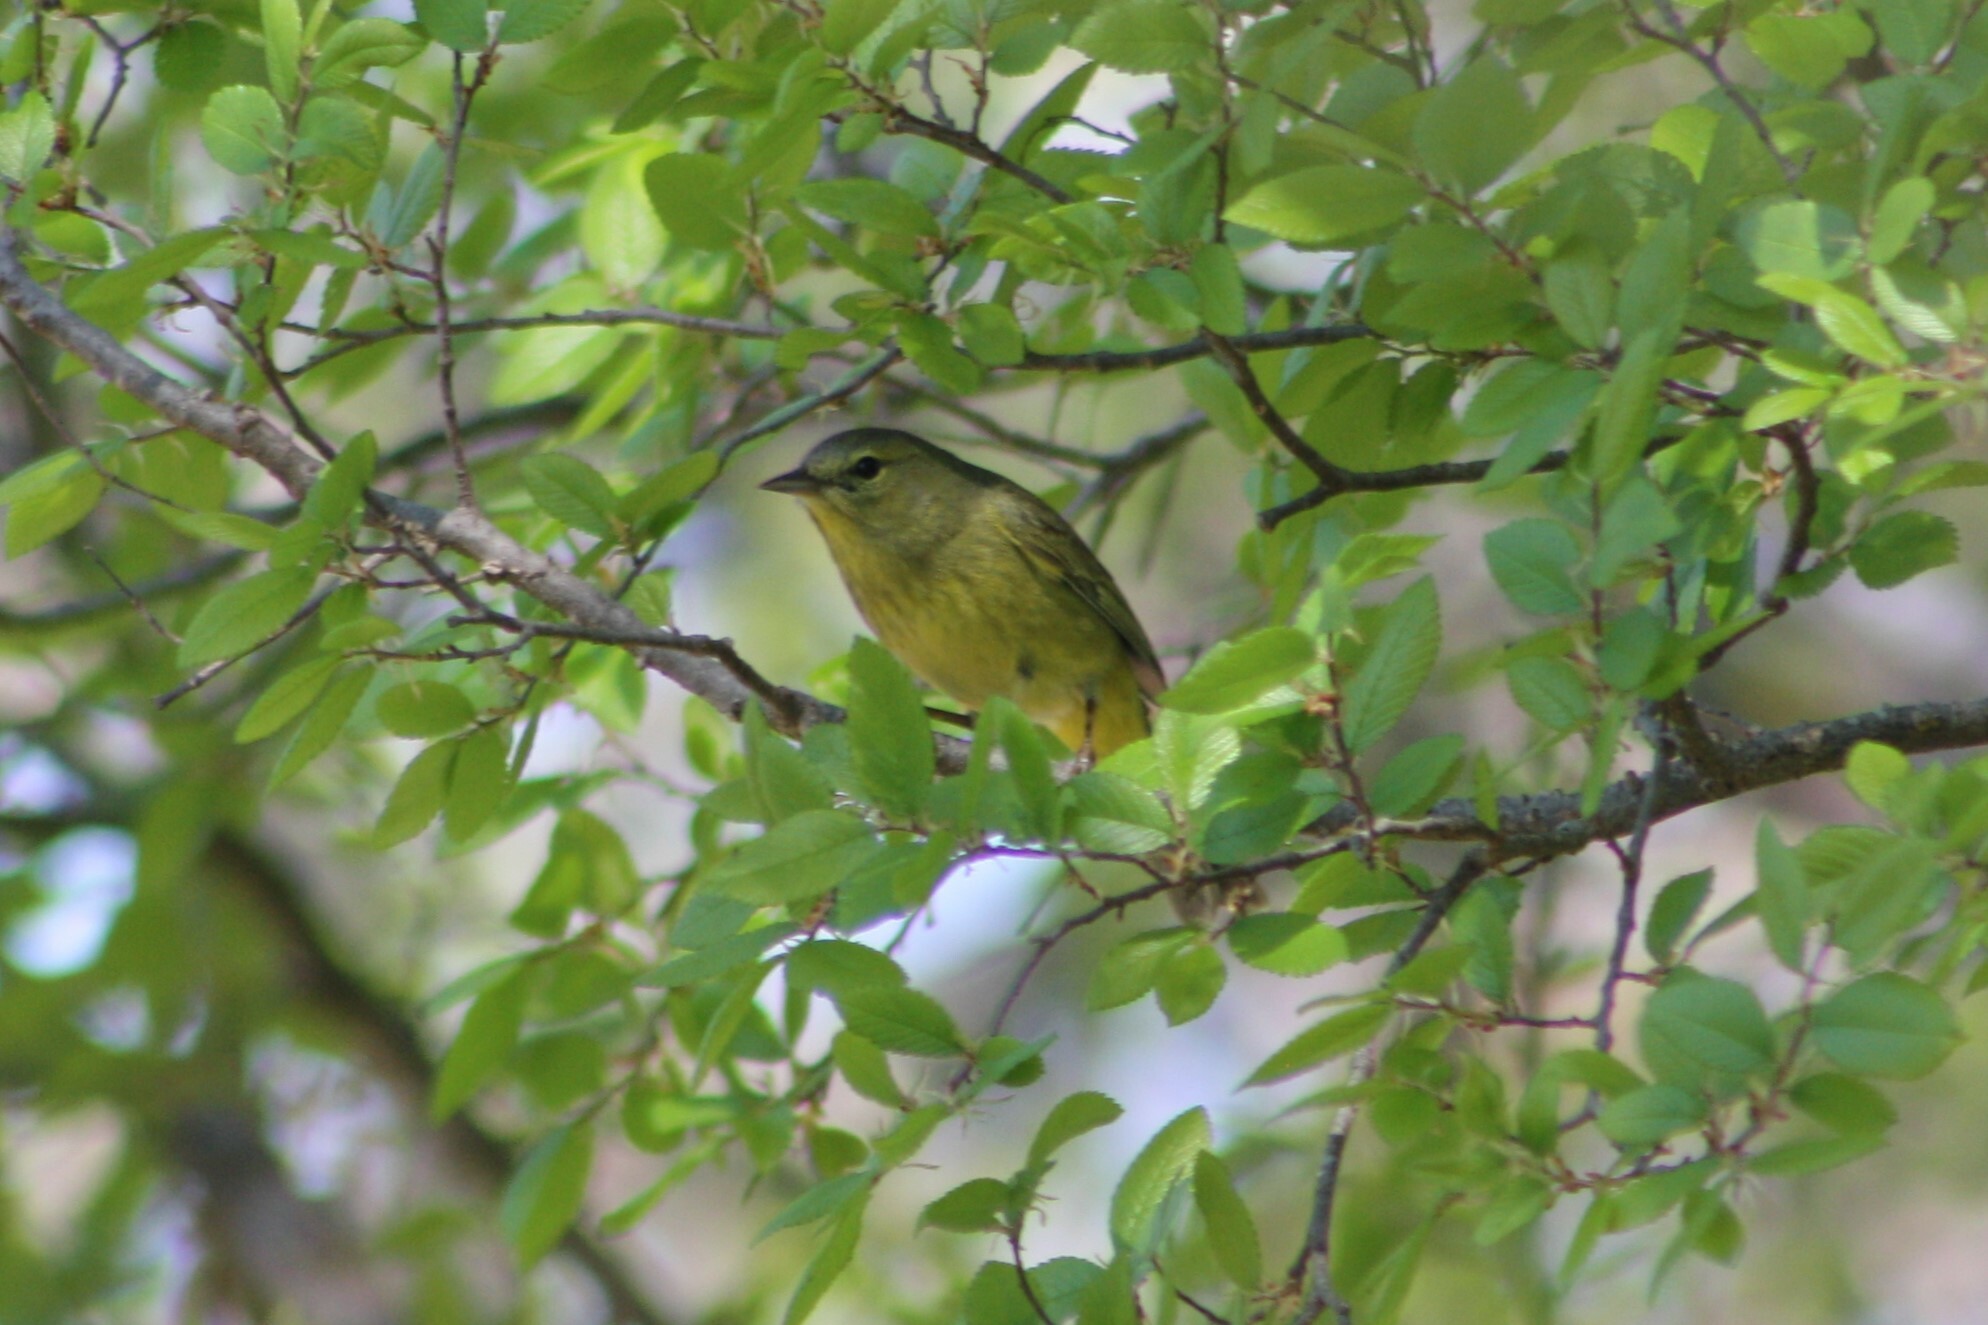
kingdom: Animalia
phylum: Chordata
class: Aves
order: Passeriformes
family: Parulidae
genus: Leiothlypis
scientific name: Leiothlypis celata
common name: Orange-crowned warbler
